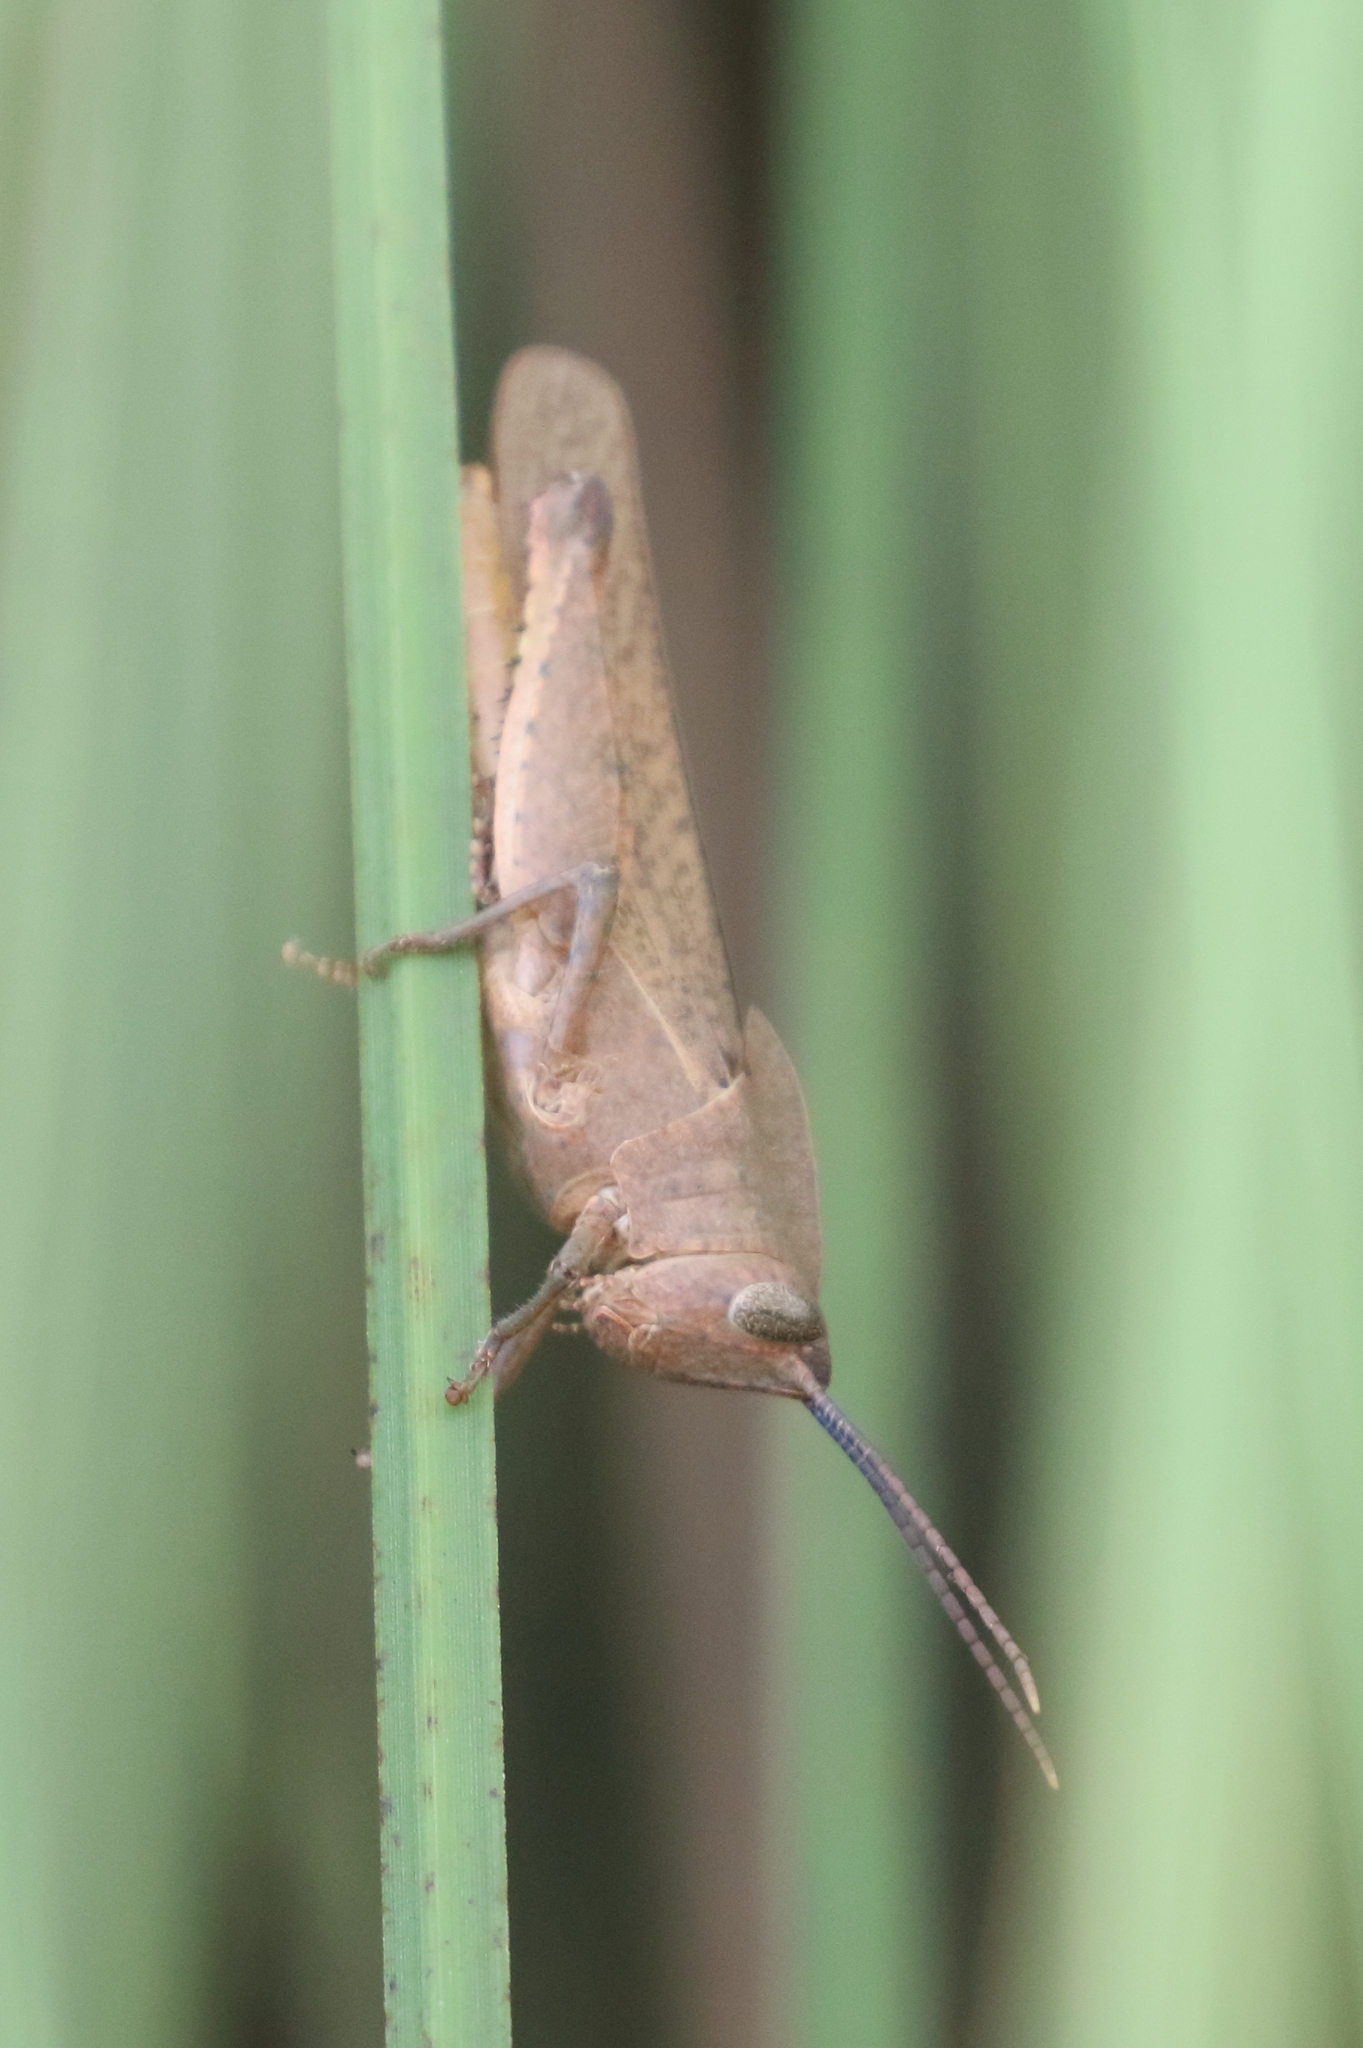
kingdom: Animalia
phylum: Arthropoda
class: Insecta
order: Orthoptera
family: Acrididae
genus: Goniaea
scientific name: Goniaea australasiae
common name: Gumleaf grasshopper
